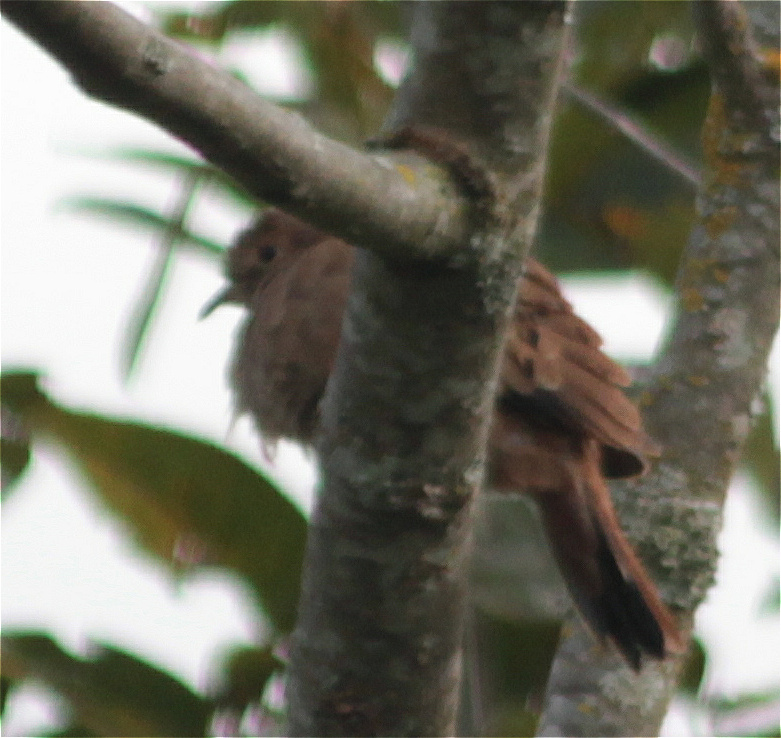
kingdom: Animalia
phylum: Chordata
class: Aves
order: Columbiformes
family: Columbidae
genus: Columbina
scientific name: Columbina talpacoti
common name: Ruddy ground dove
